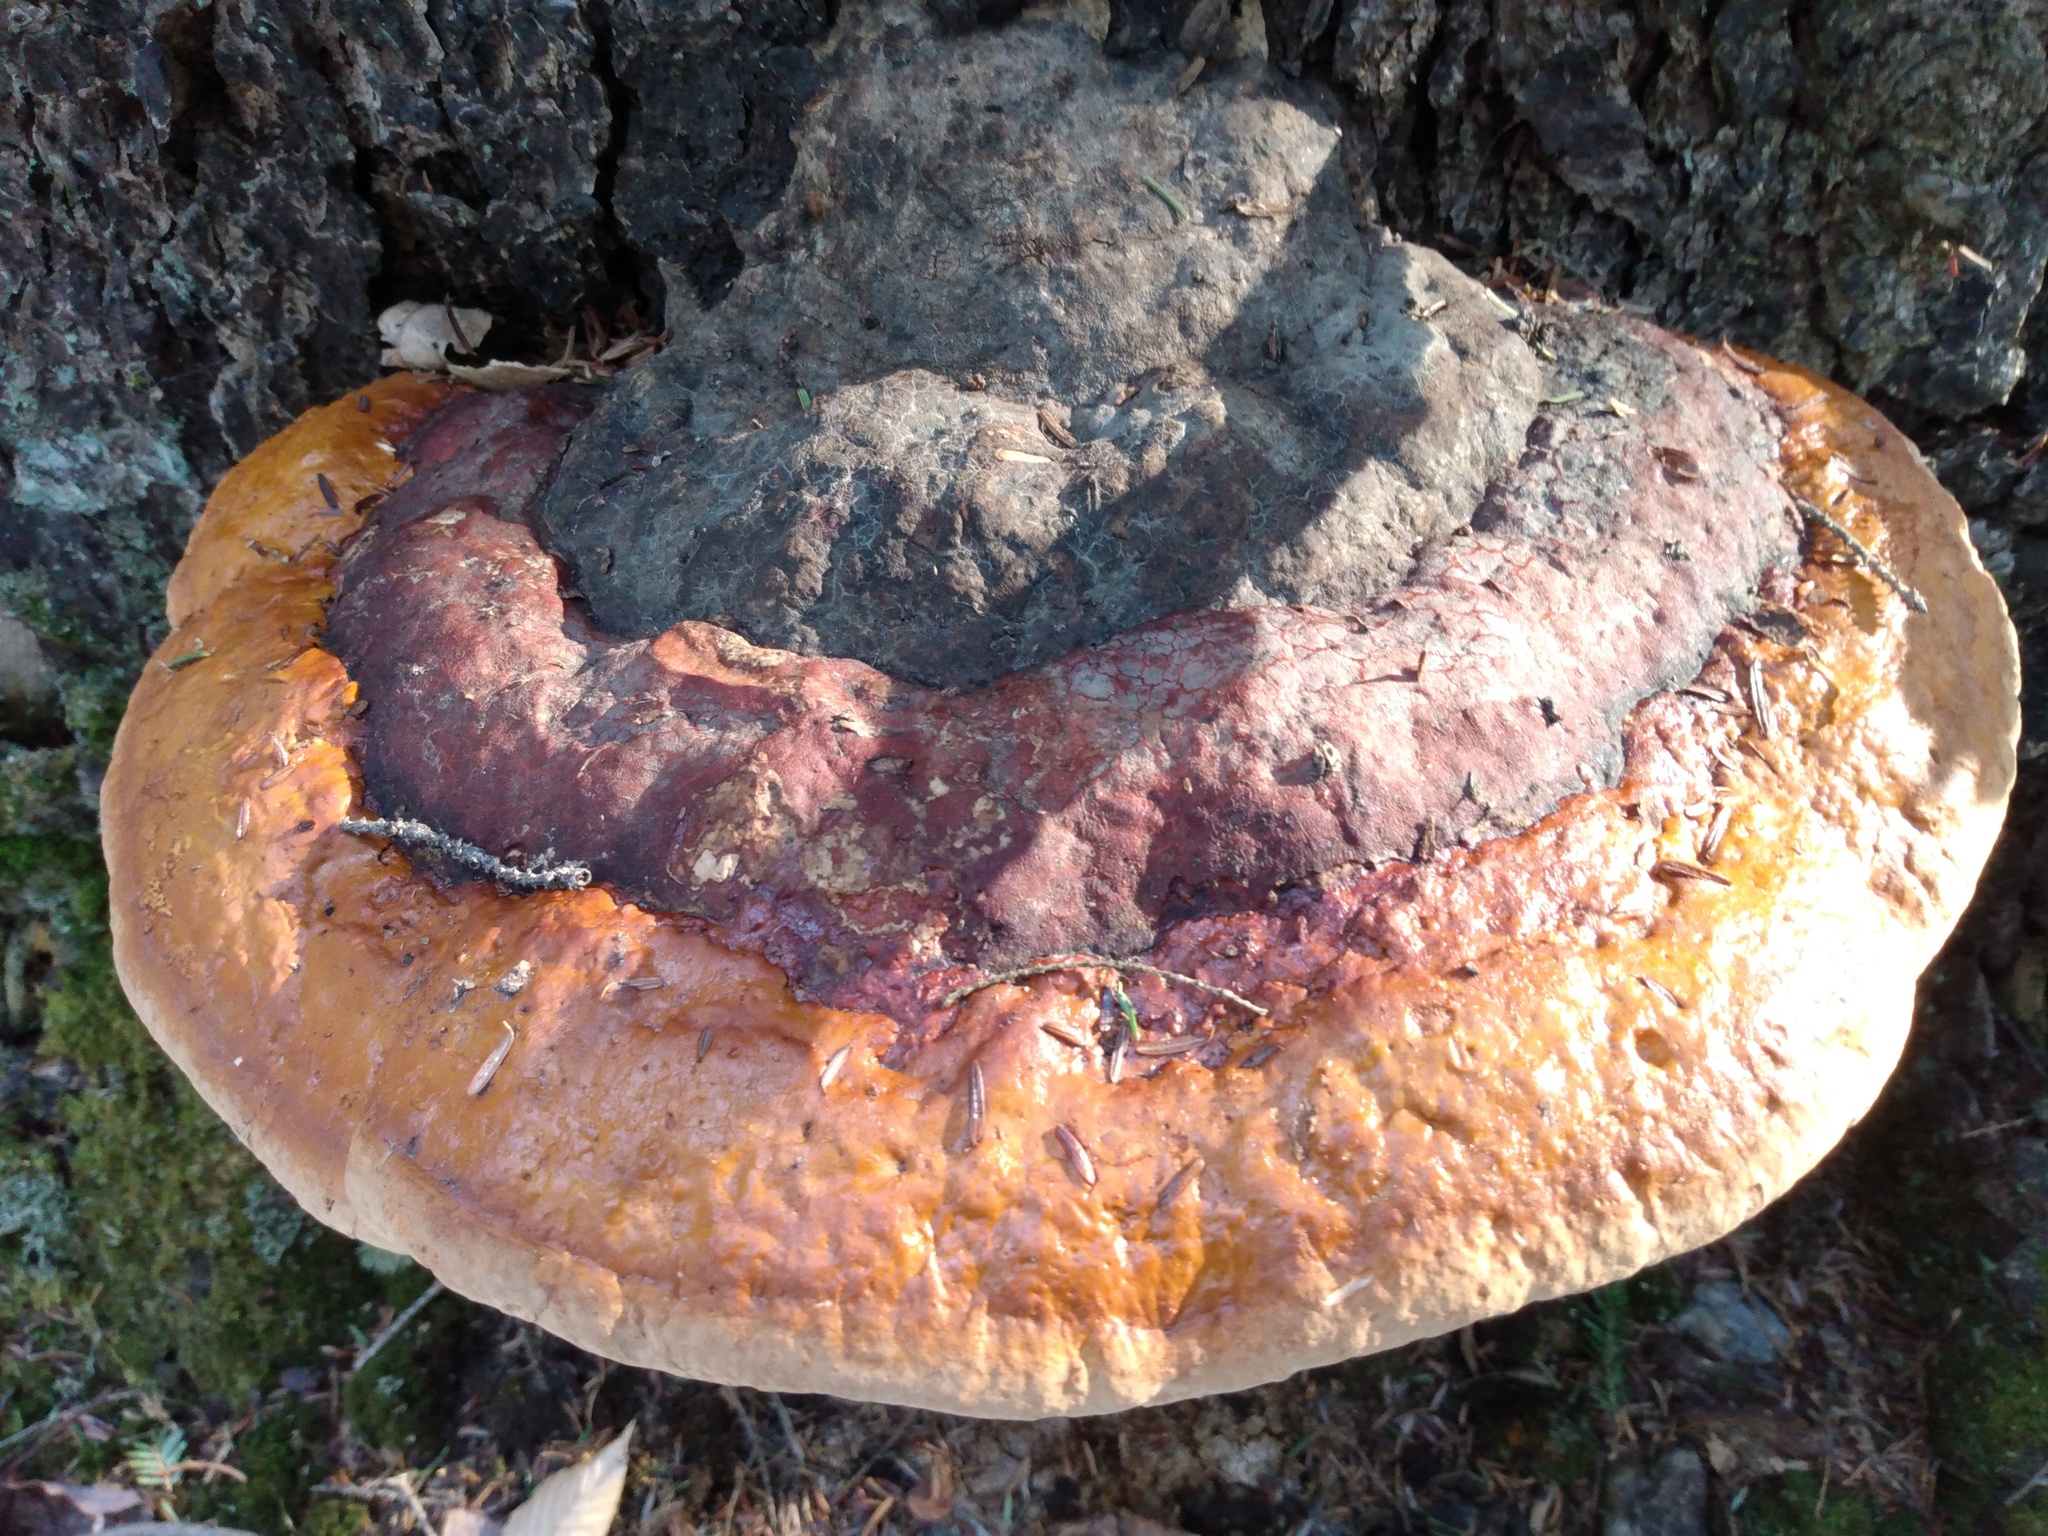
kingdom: Fungi
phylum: Basidiomycota
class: Agaricomycetes
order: Polyporales
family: Fomitopsidaceae
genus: Fomitopsis
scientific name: Fomitopsis mounceae
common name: Northern red belt
